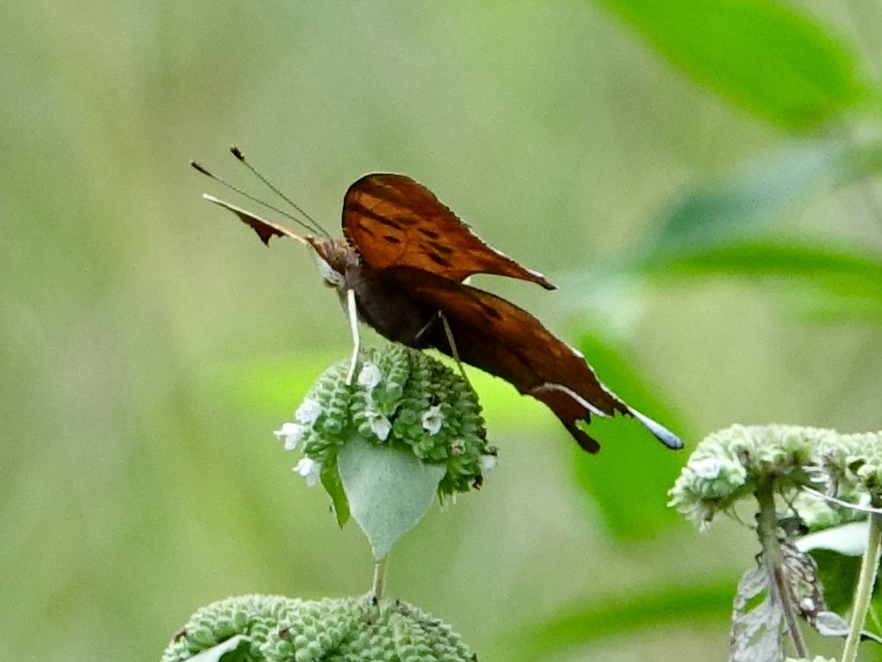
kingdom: Animalia
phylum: Arthropoda
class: Insecta
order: Lepidoptera
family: Nymphalidae
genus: Polygonia
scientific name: Polygonia interrogationis
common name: Question mark
